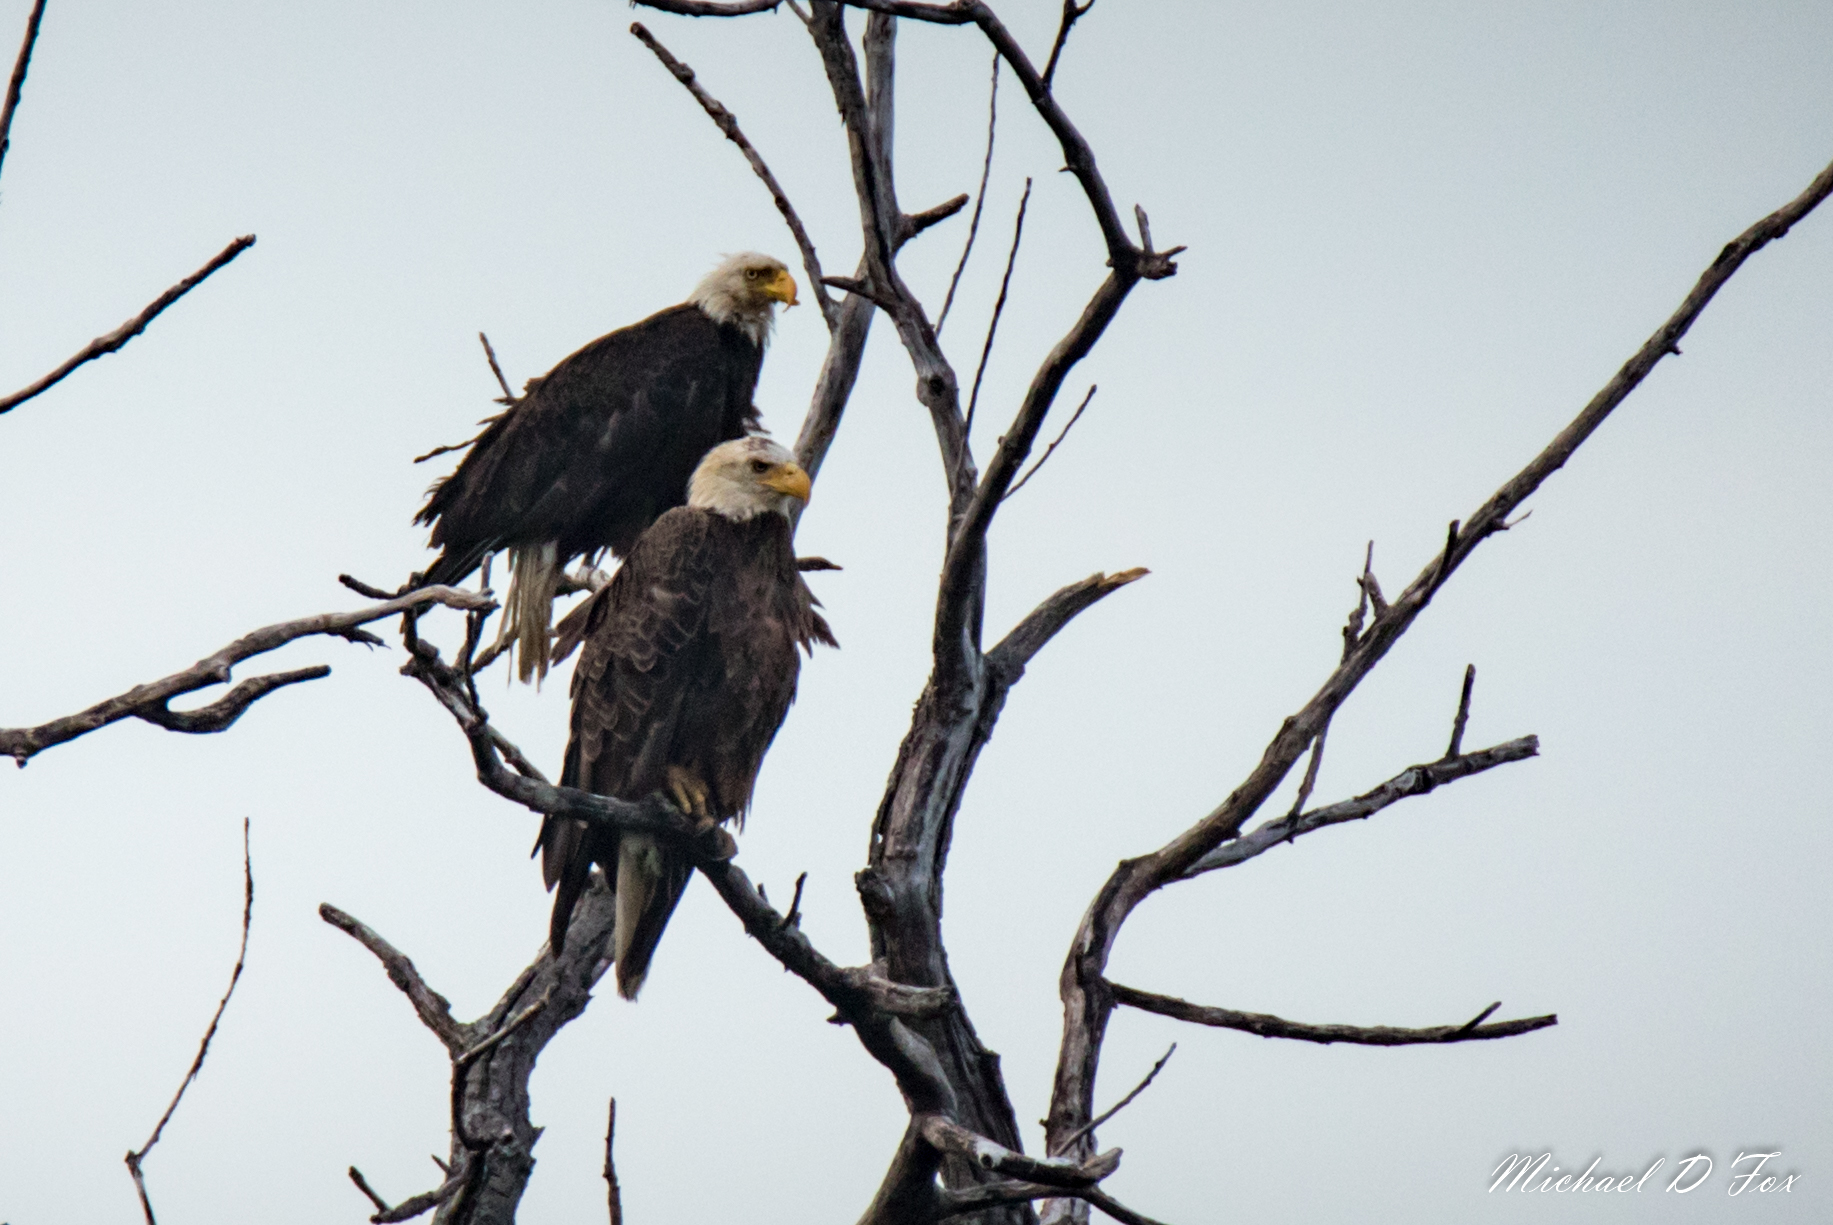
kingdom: Animalia
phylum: Chordata
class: Aves
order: Accipitriformes
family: Accipitridae
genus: Haliaeetus
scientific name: Haliaeetus leucocephalus
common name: Bald eagle
